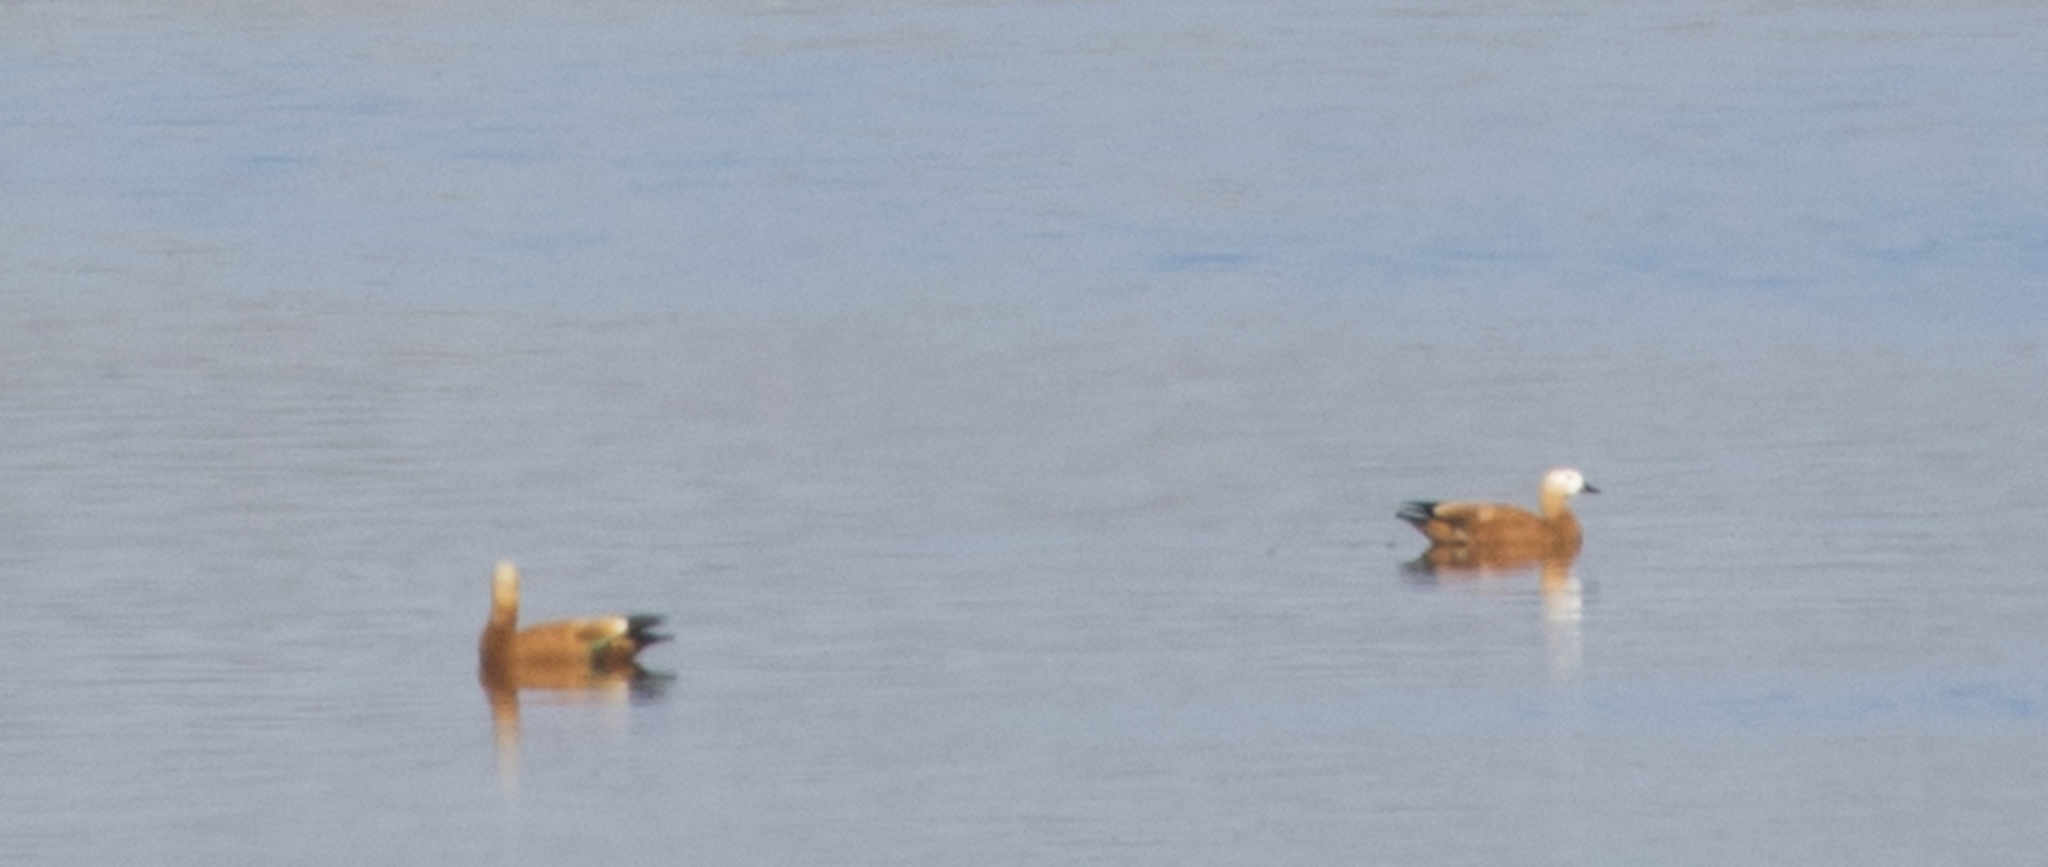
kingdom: Animalia
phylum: Chordata
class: Aves
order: Anseriformes
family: Anatidae
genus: Tadorna
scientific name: Tadorna ferruginea
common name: Ruddy shelduck
